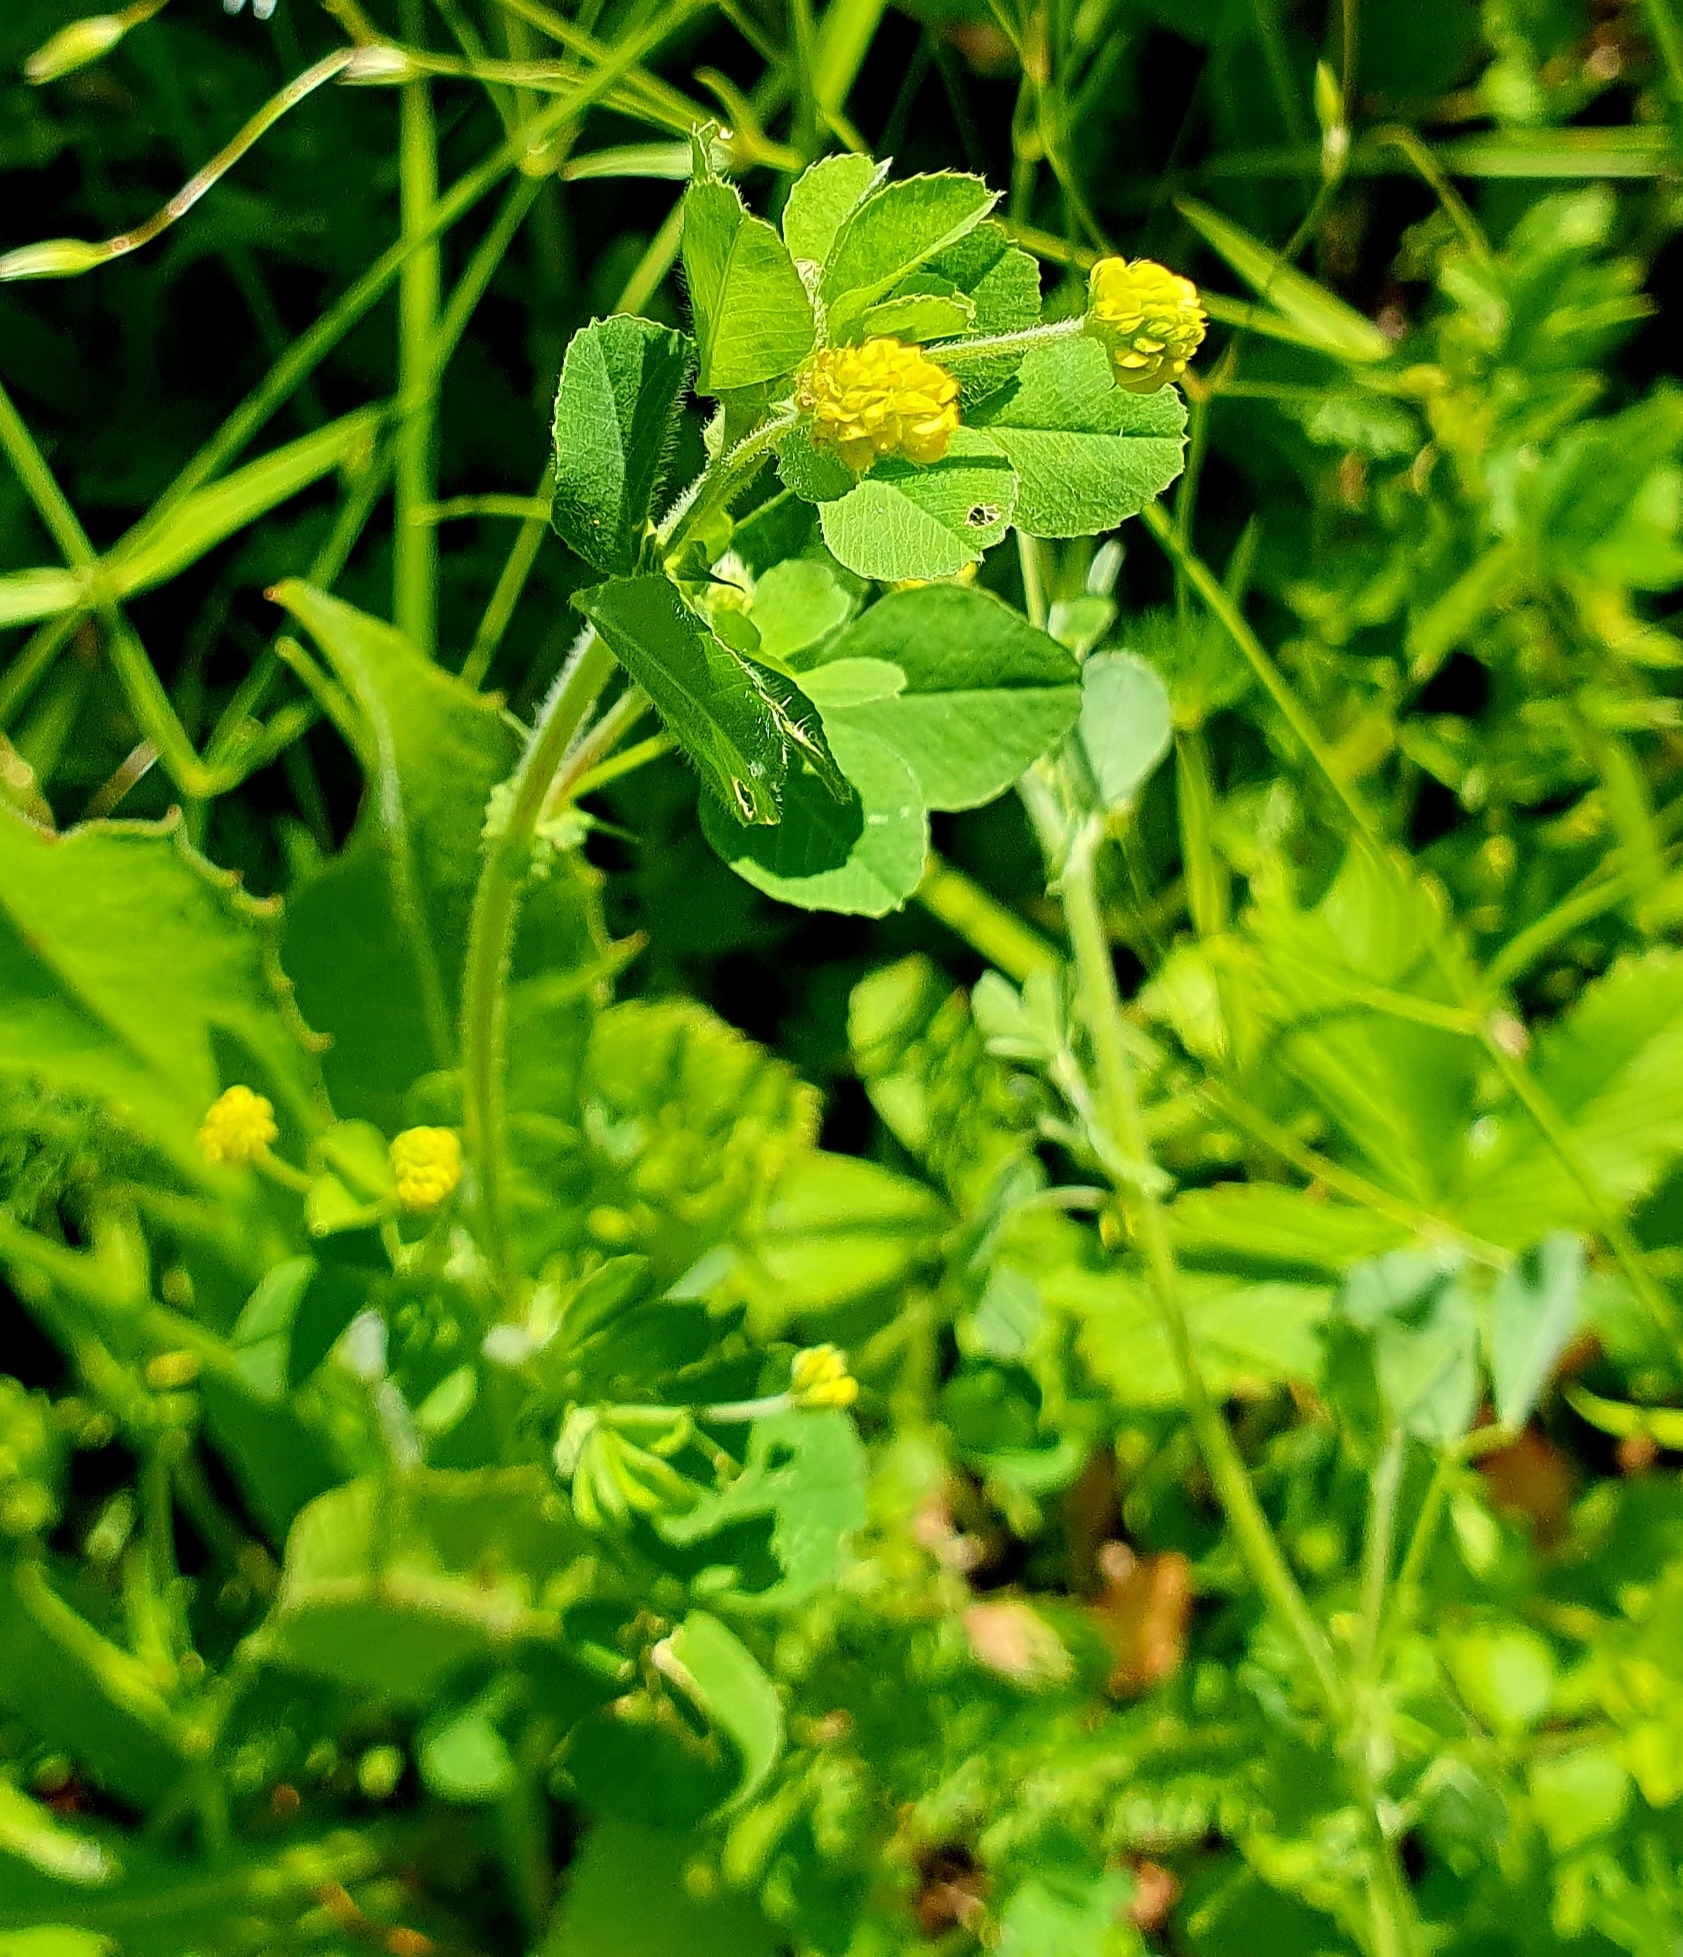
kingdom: Plantae
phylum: Tracheophyta
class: Magnoliopsida
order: Fabales
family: Fabaceae
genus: Medicago
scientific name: Medicago lupulina
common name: Black medick
